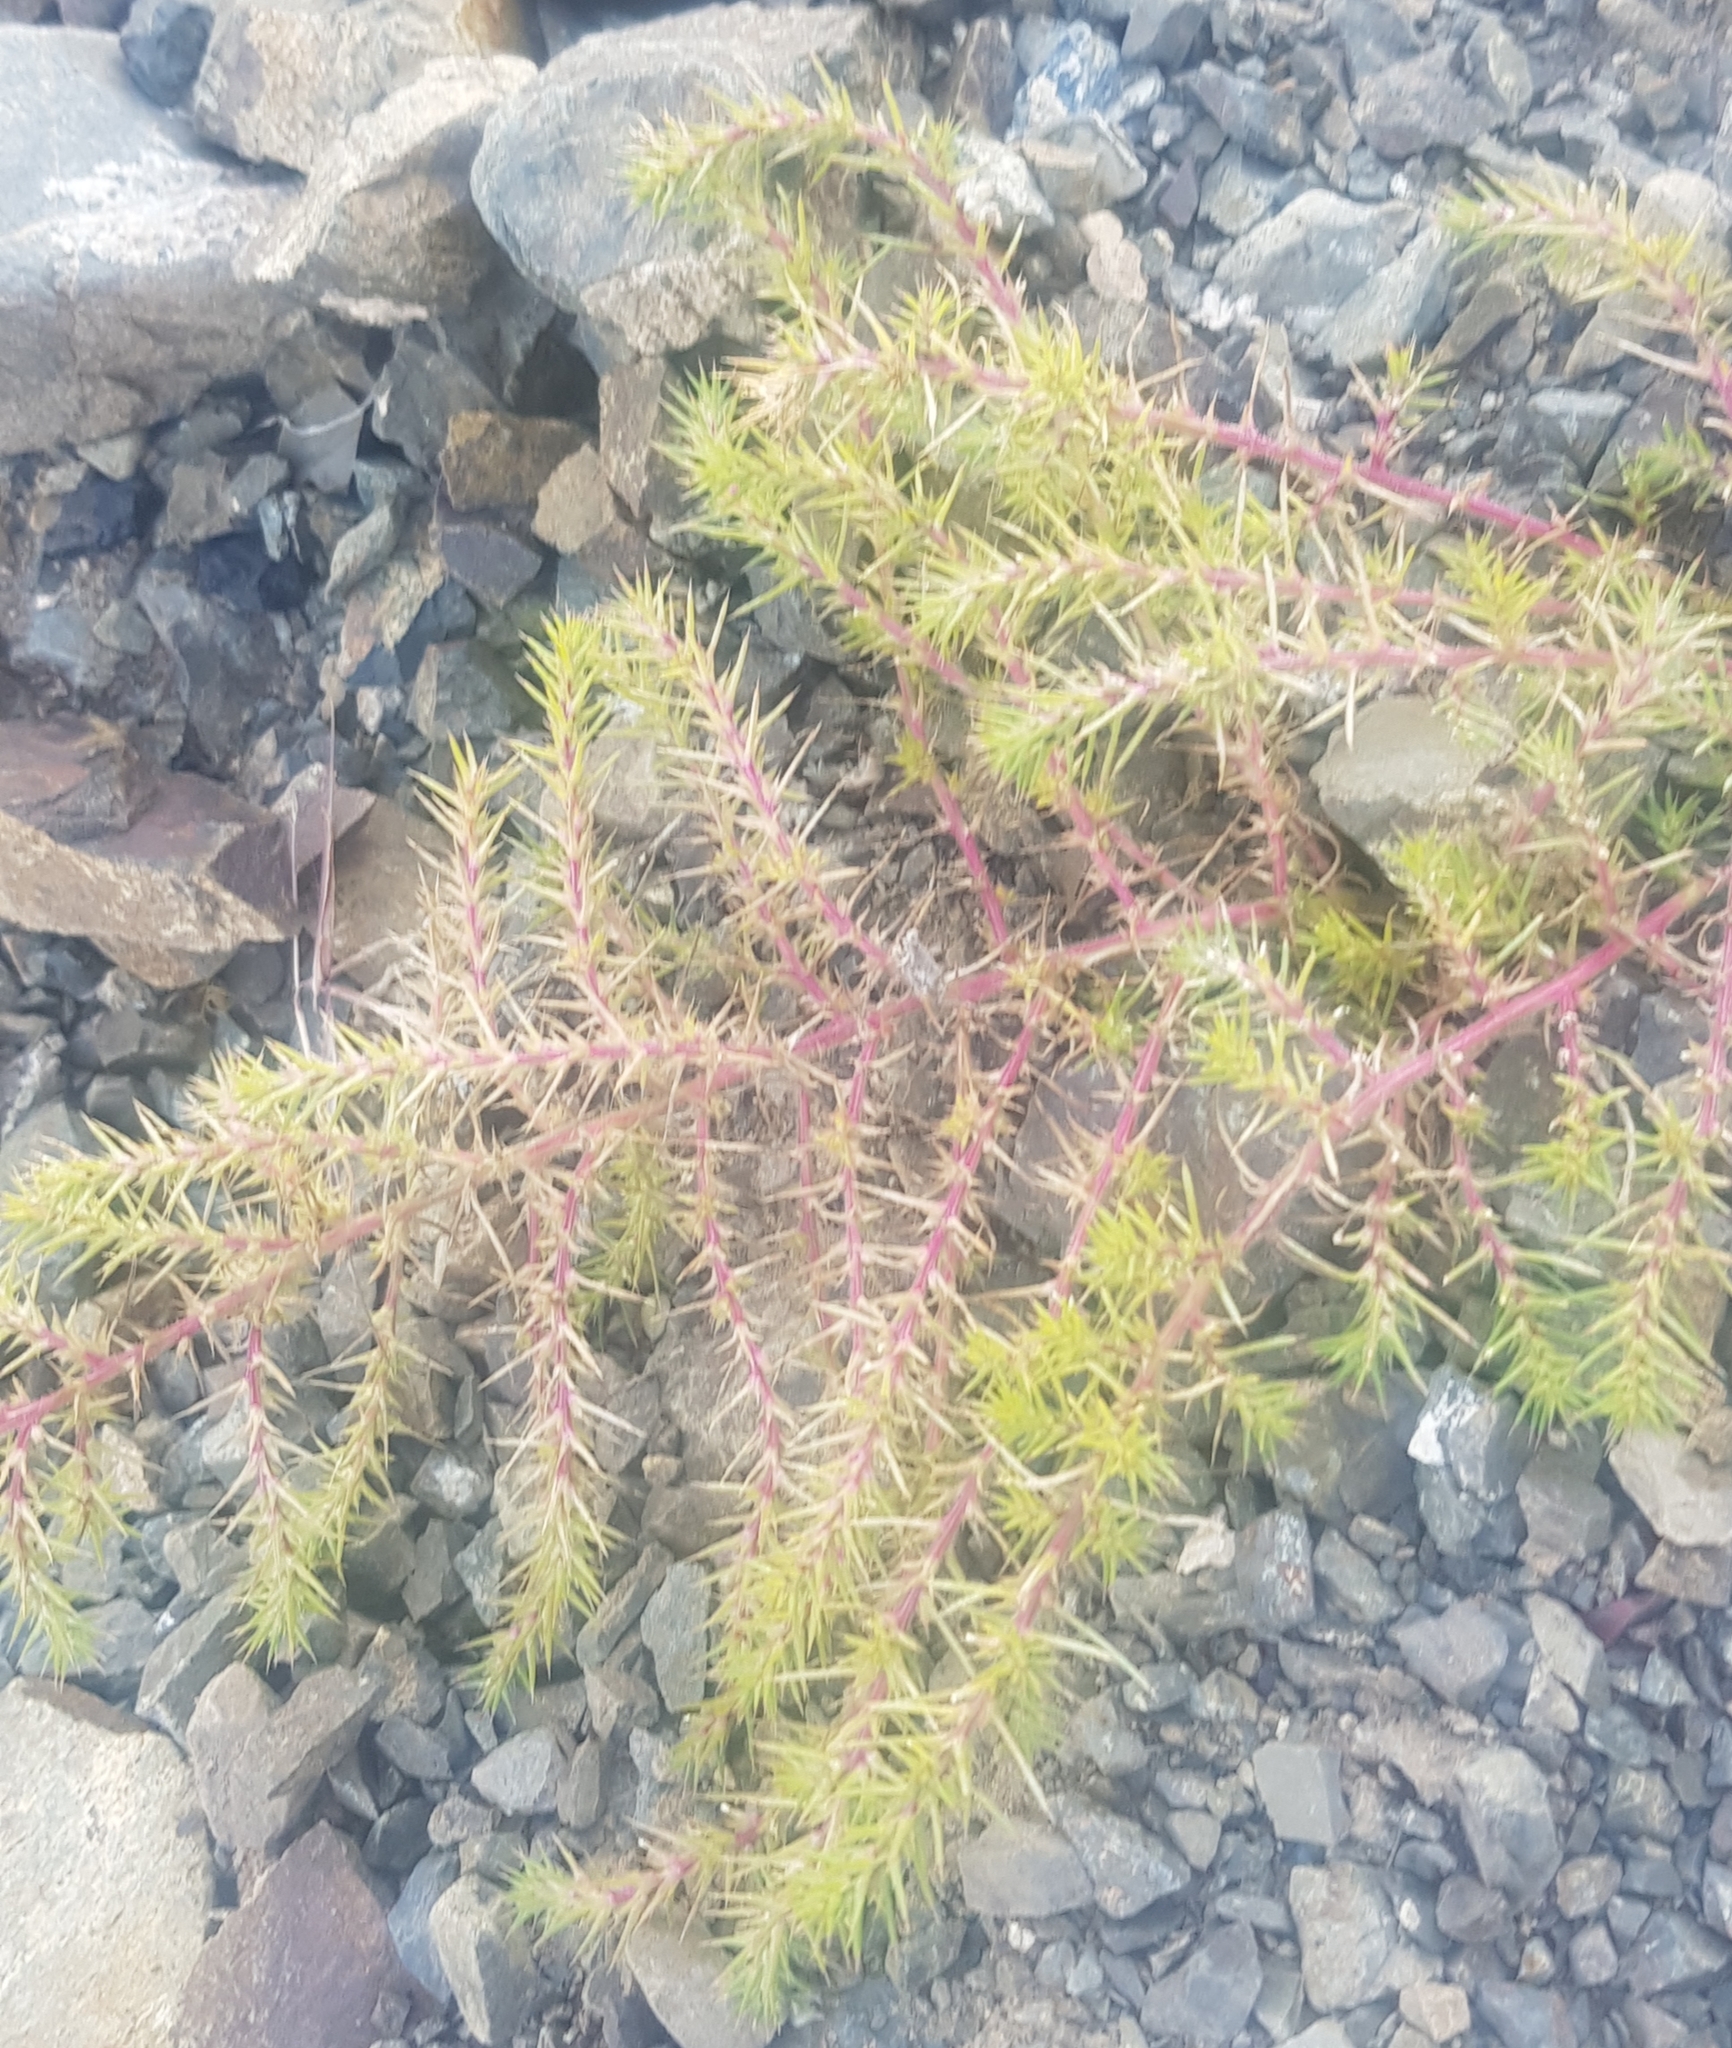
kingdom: Plantae
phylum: Tracheophyta
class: Magnoliopsida
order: Caryophyllales
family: Amaranthaceae
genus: Salsola
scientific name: Salsola collina
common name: Tumbleweed
